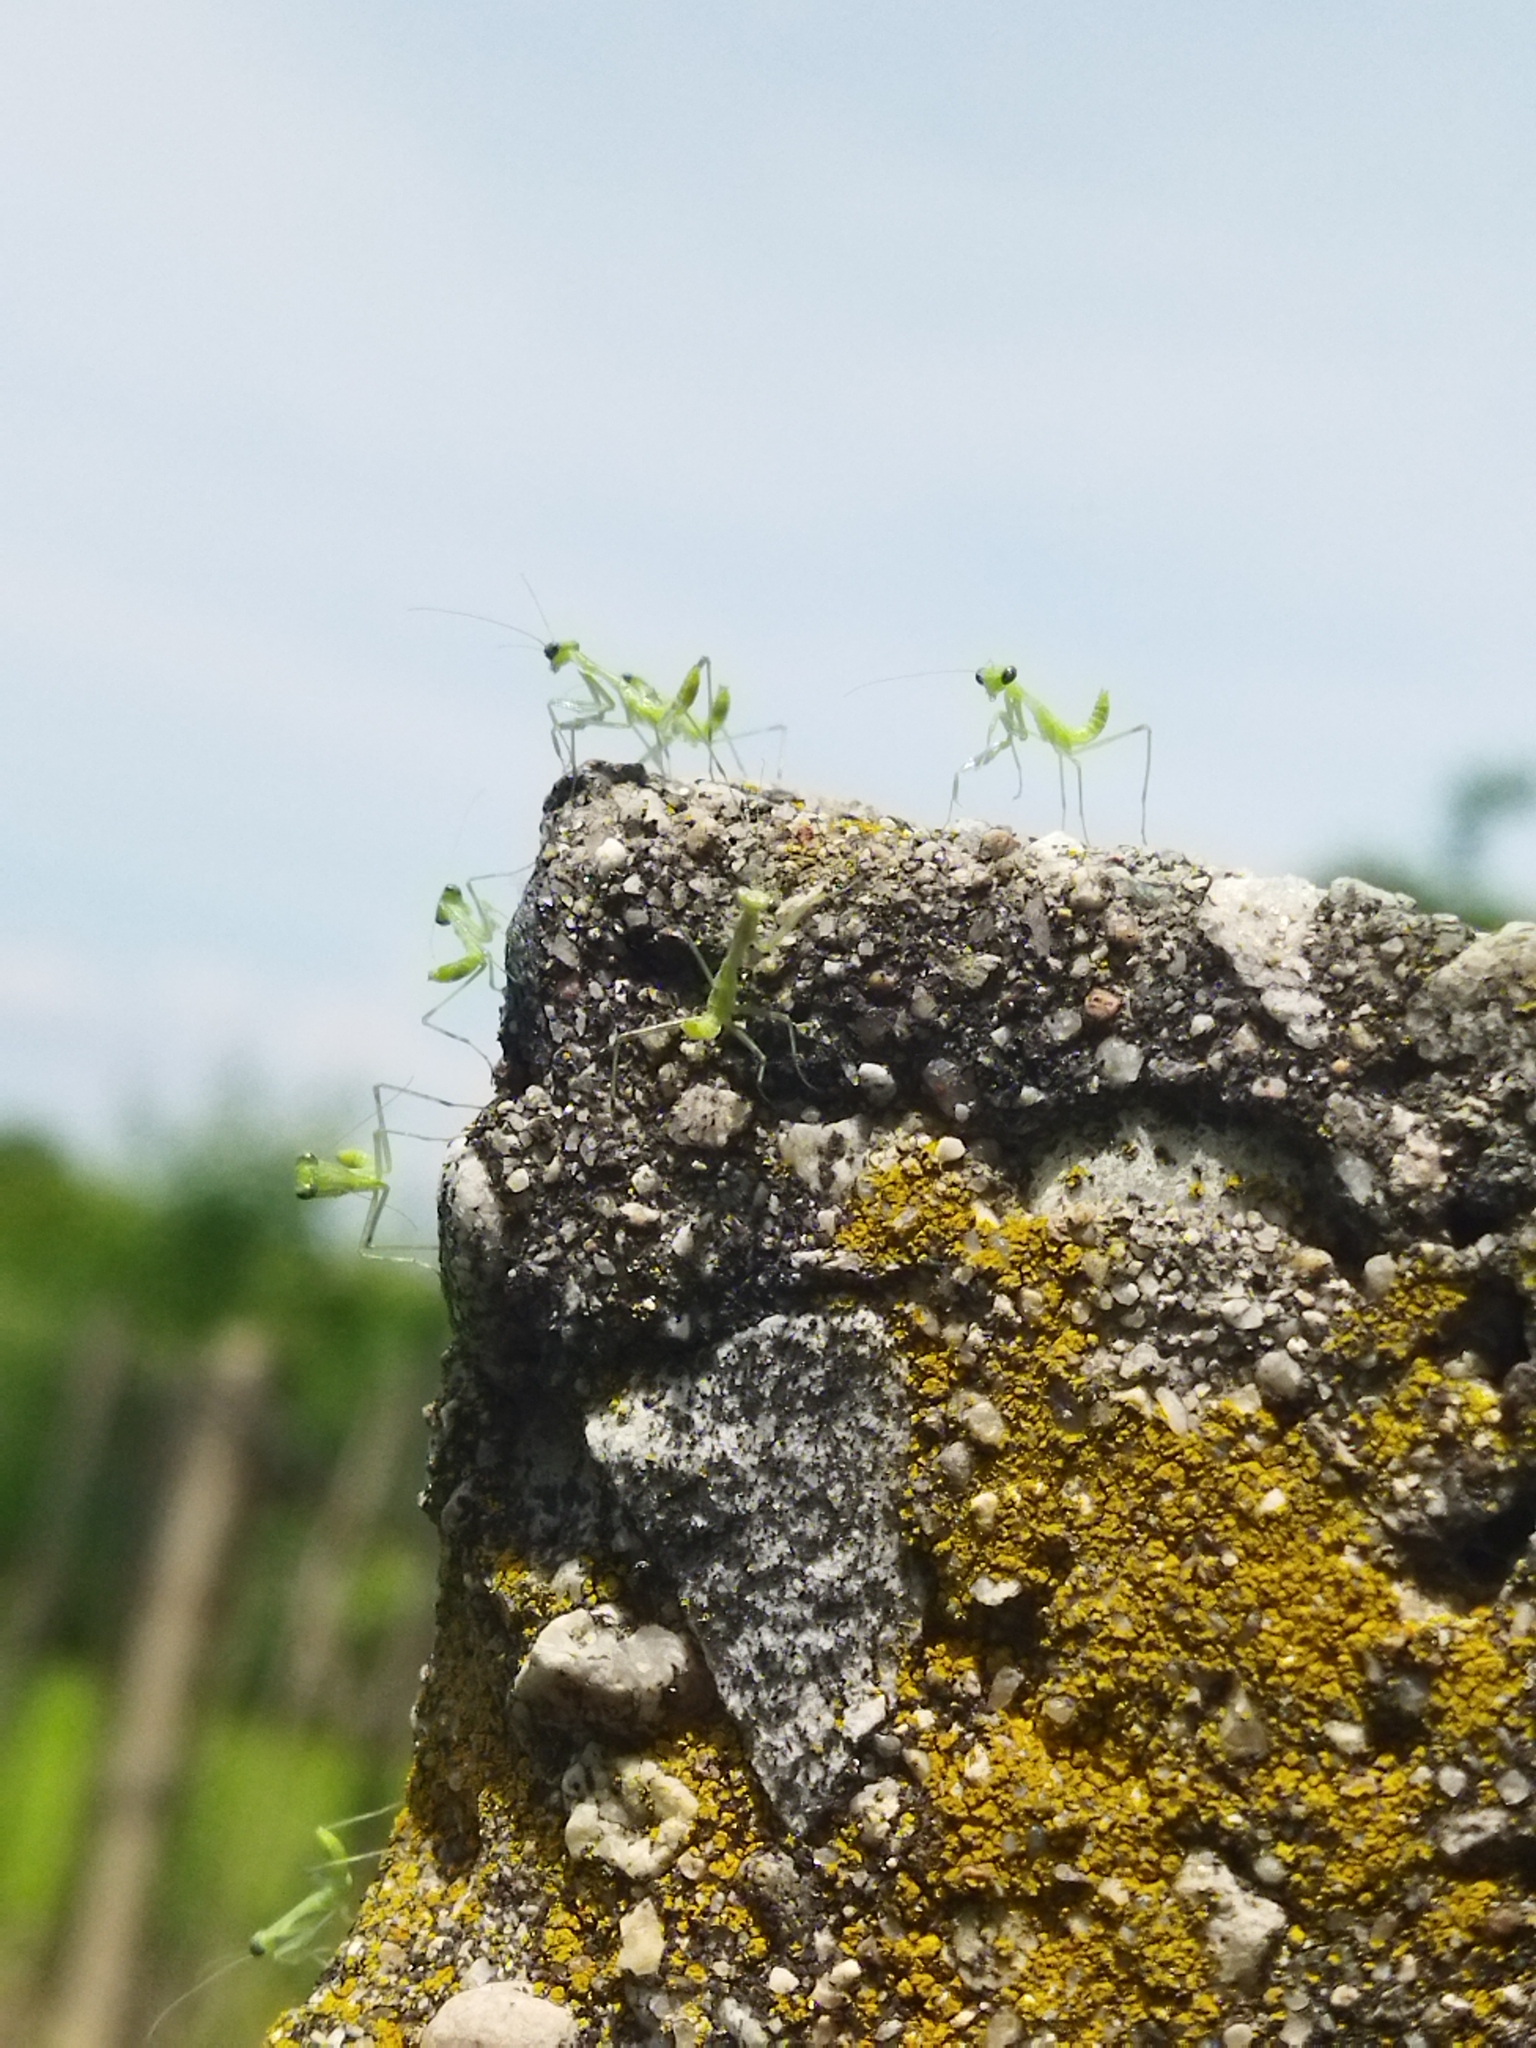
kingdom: Animalia
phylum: Arthropoda
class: Insecta
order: Mantodea
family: Mantidae
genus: Hierodula
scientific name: Hierodula transcaucasica
